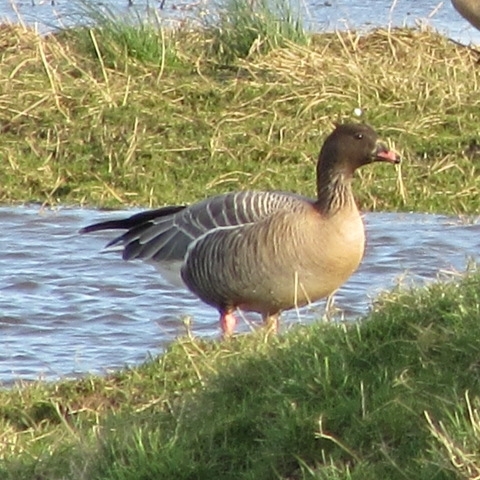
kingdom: Animalia
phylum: Chordata
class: Aves
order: Anseriformes
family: Anatidae
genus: Anser
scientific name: Anser brachyrhynchus
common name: Pink-footed goose
